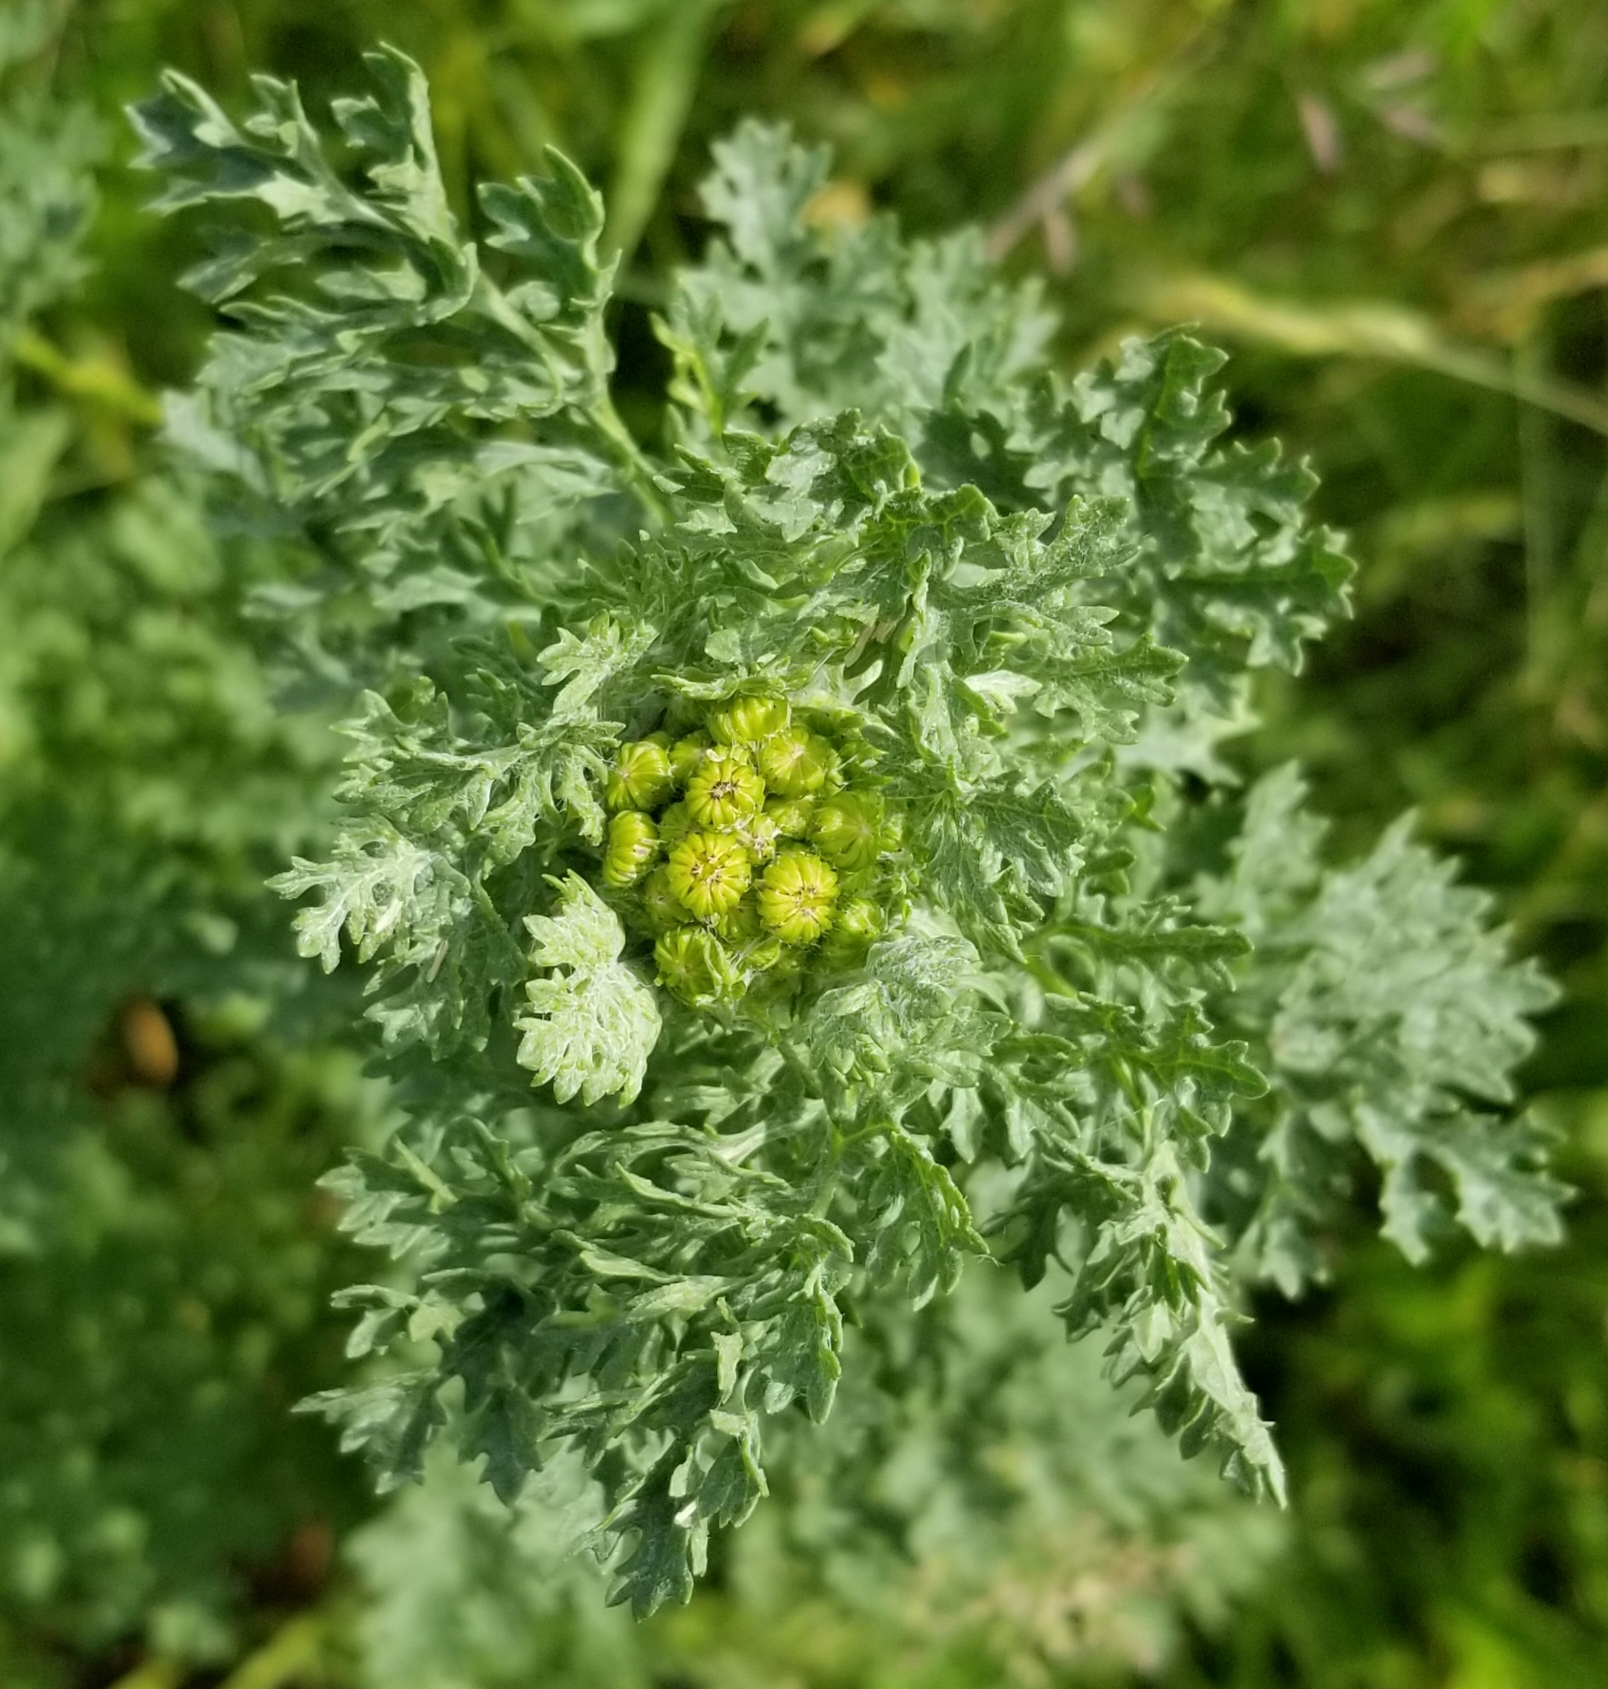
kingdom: Plantae
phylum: Tracheophyta
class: Magnoliopsida
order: Asterales
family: Asteraceae
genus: Senecio
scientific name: Senecio sylvaticus
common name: Woodland ragwort
